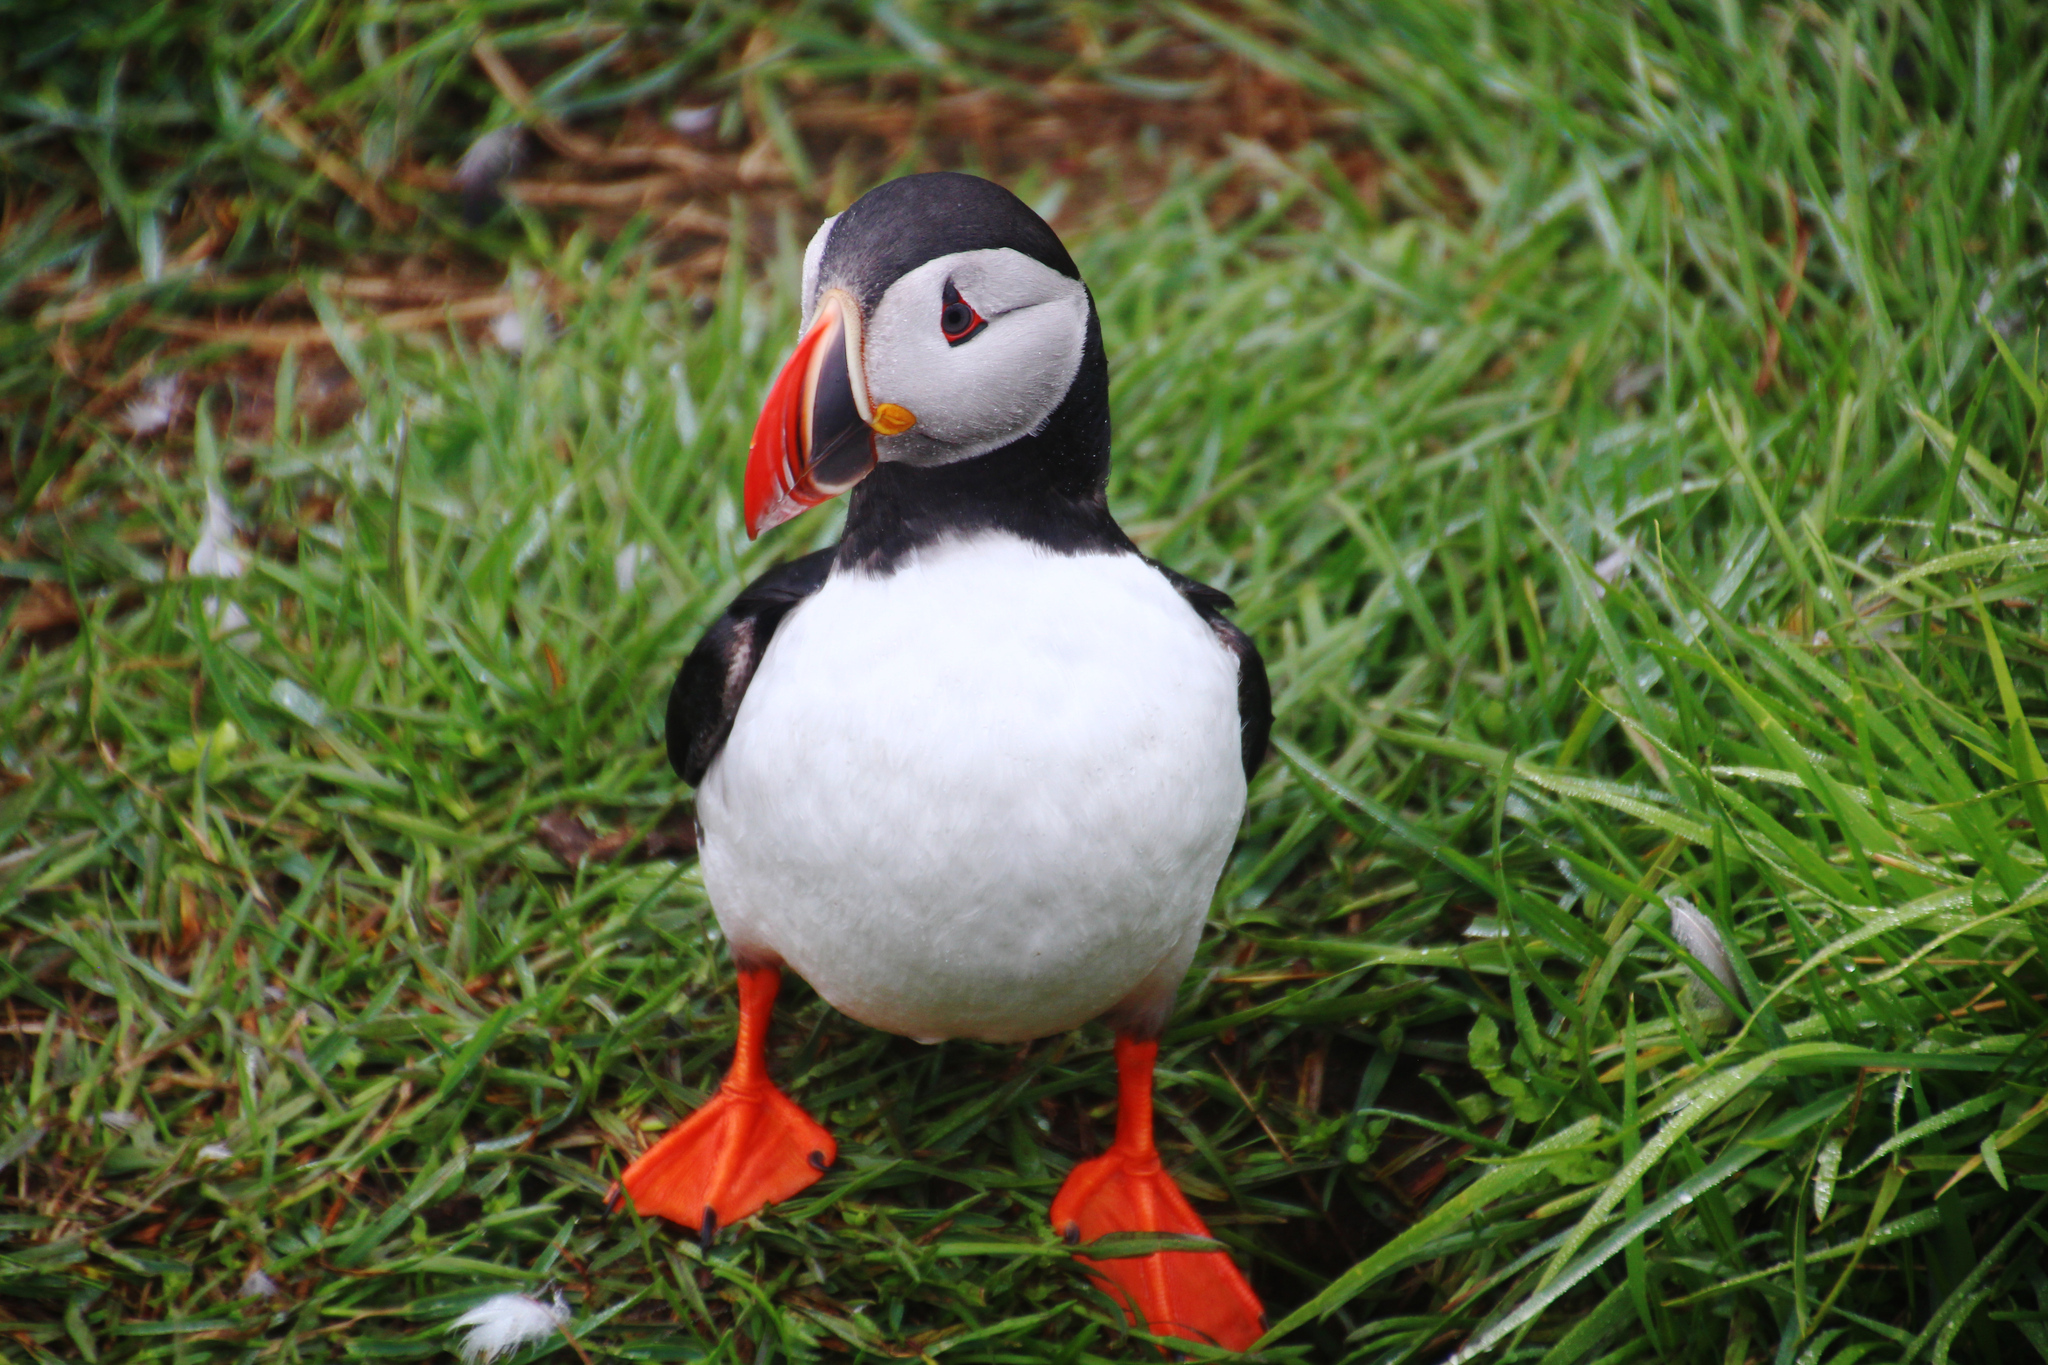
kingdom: Animalia
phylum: Chordata
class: Aves
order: Charadriiformes
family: Alcidae
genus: Fratercula
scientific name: Fratercula arctica
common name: Atlantic puffin
